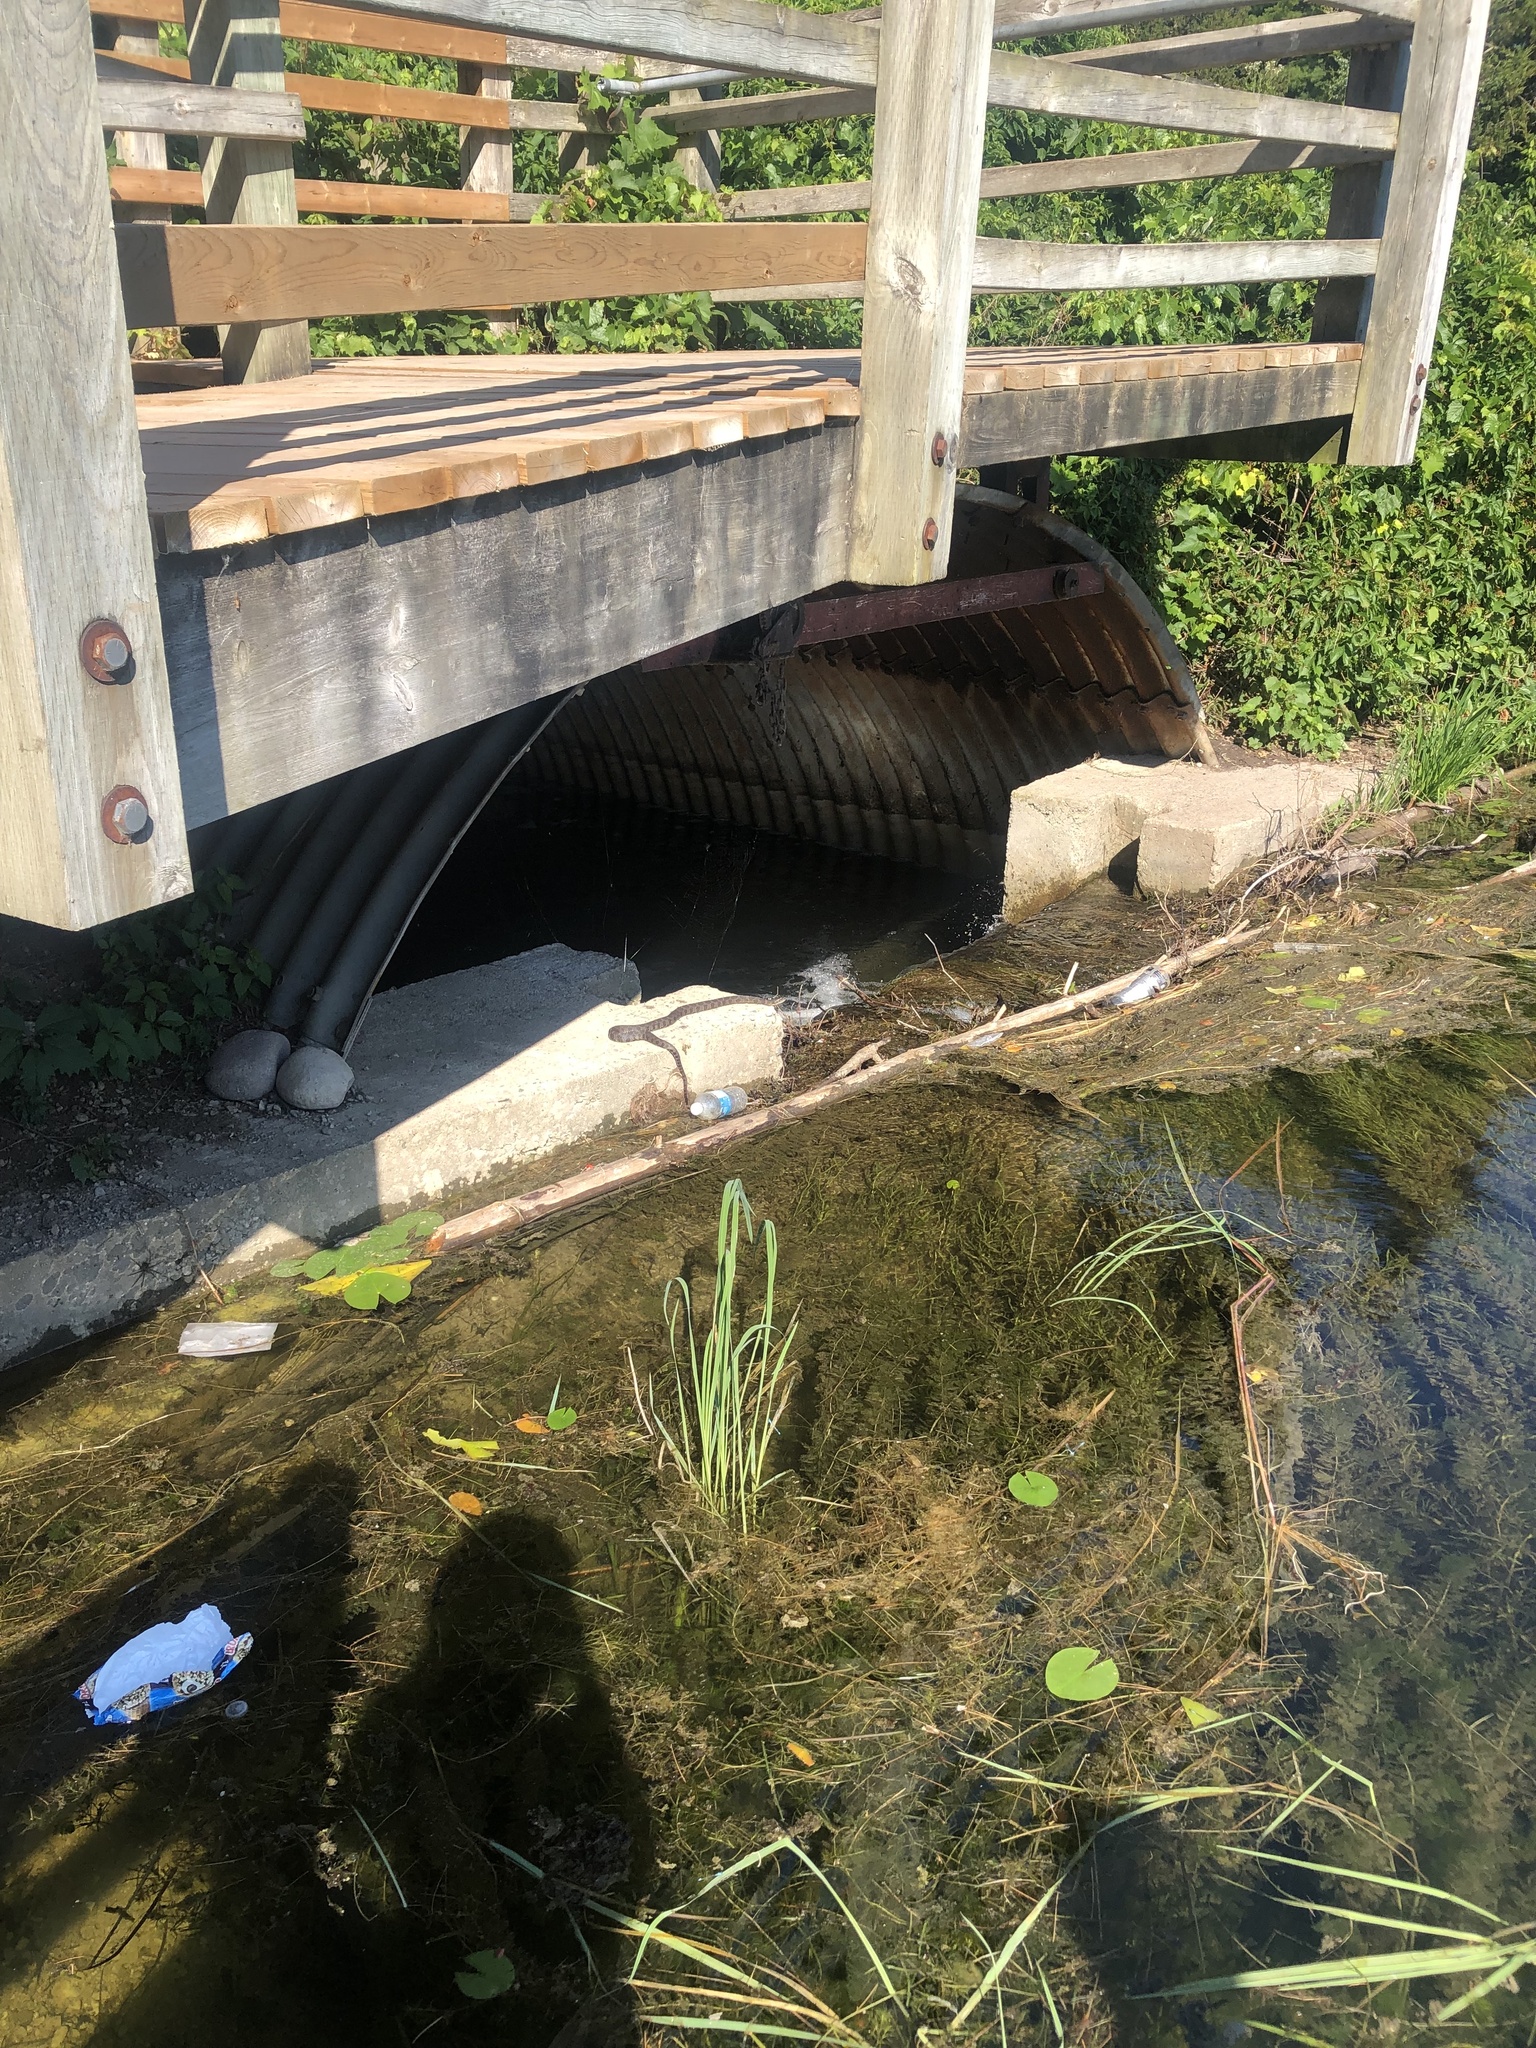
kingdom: Animalia
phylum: Chordata
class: Squamata
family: Colubridae
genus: Nerodia
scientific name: Nerodia sipedon
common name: Northern water snake
